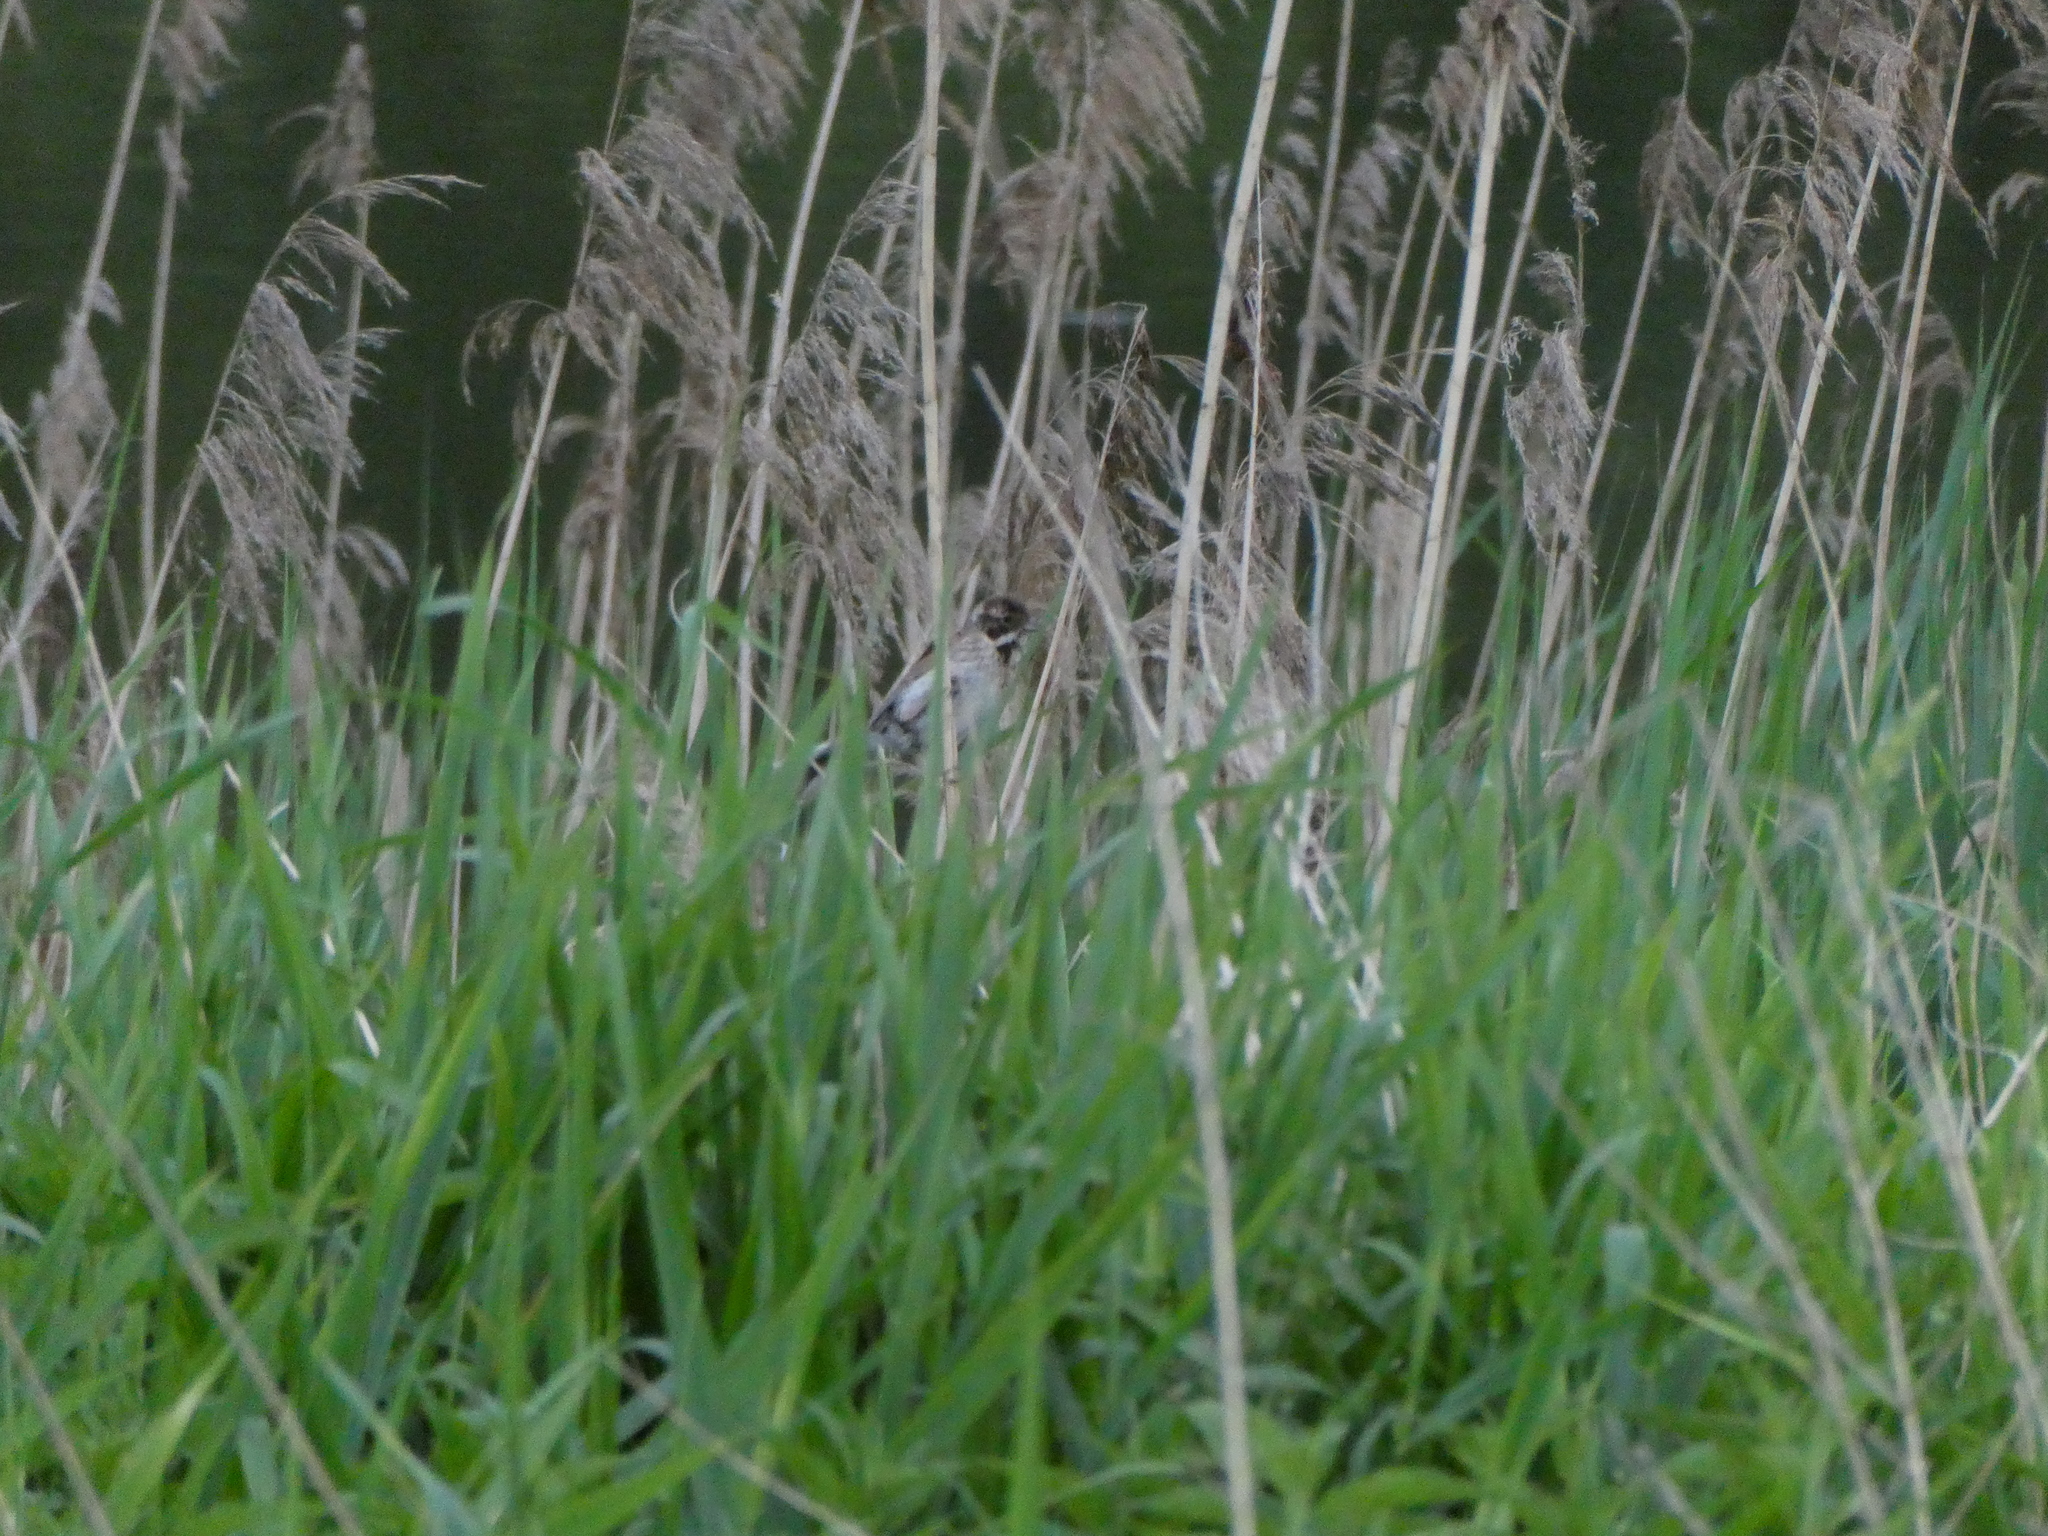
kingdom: Animalia
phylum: Chordata
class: Aves
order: Passeriformes
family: Emberizidae
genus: Emberiza
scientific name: Emberiza schoeniclus
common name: Reed bunting
